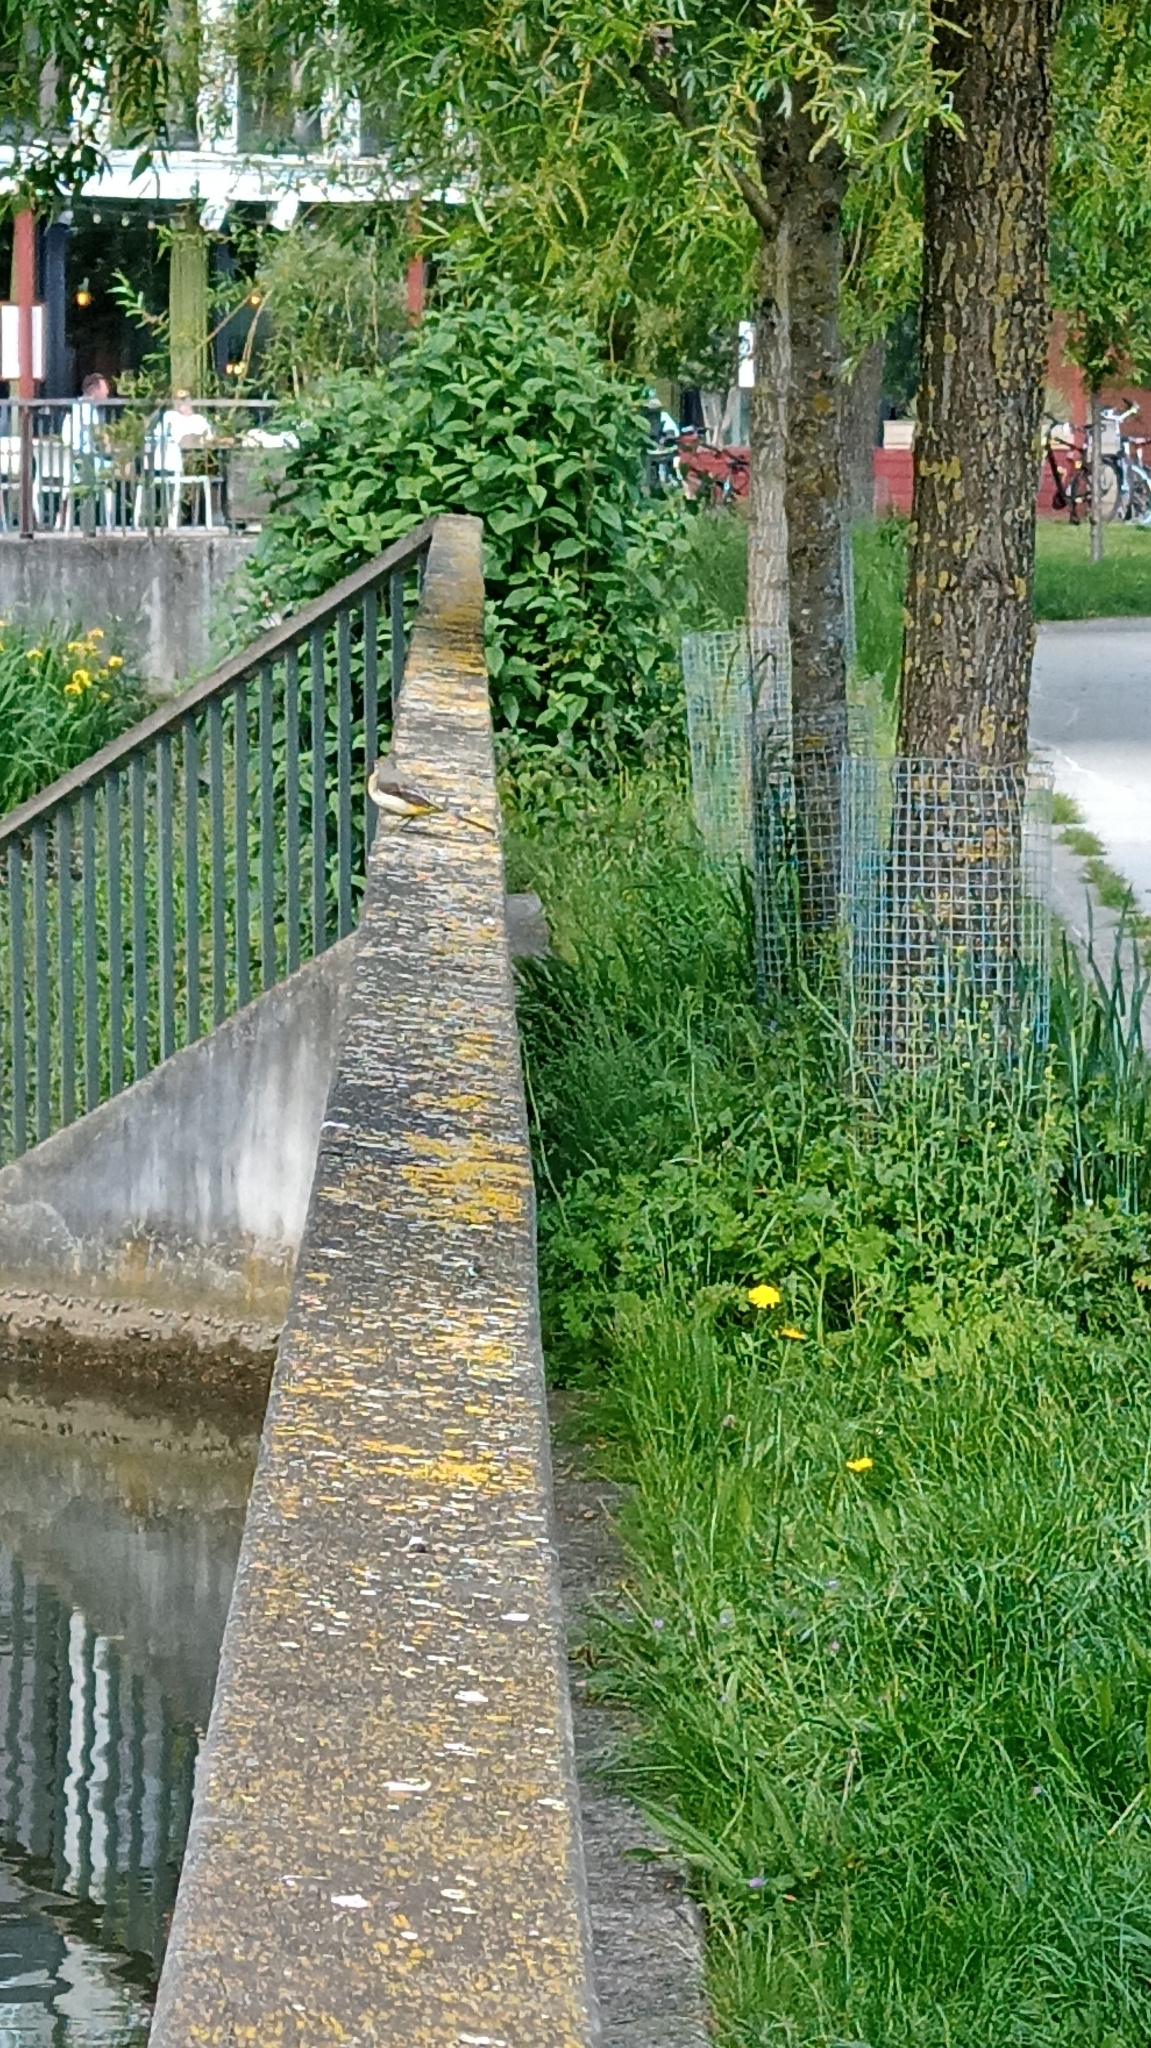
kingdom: Animalia
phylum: Chordata
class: Aves
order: Passeriformes
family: Motacillidae
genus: Motacilla
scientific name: Motacilla cinerea
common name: Grey wagtail
